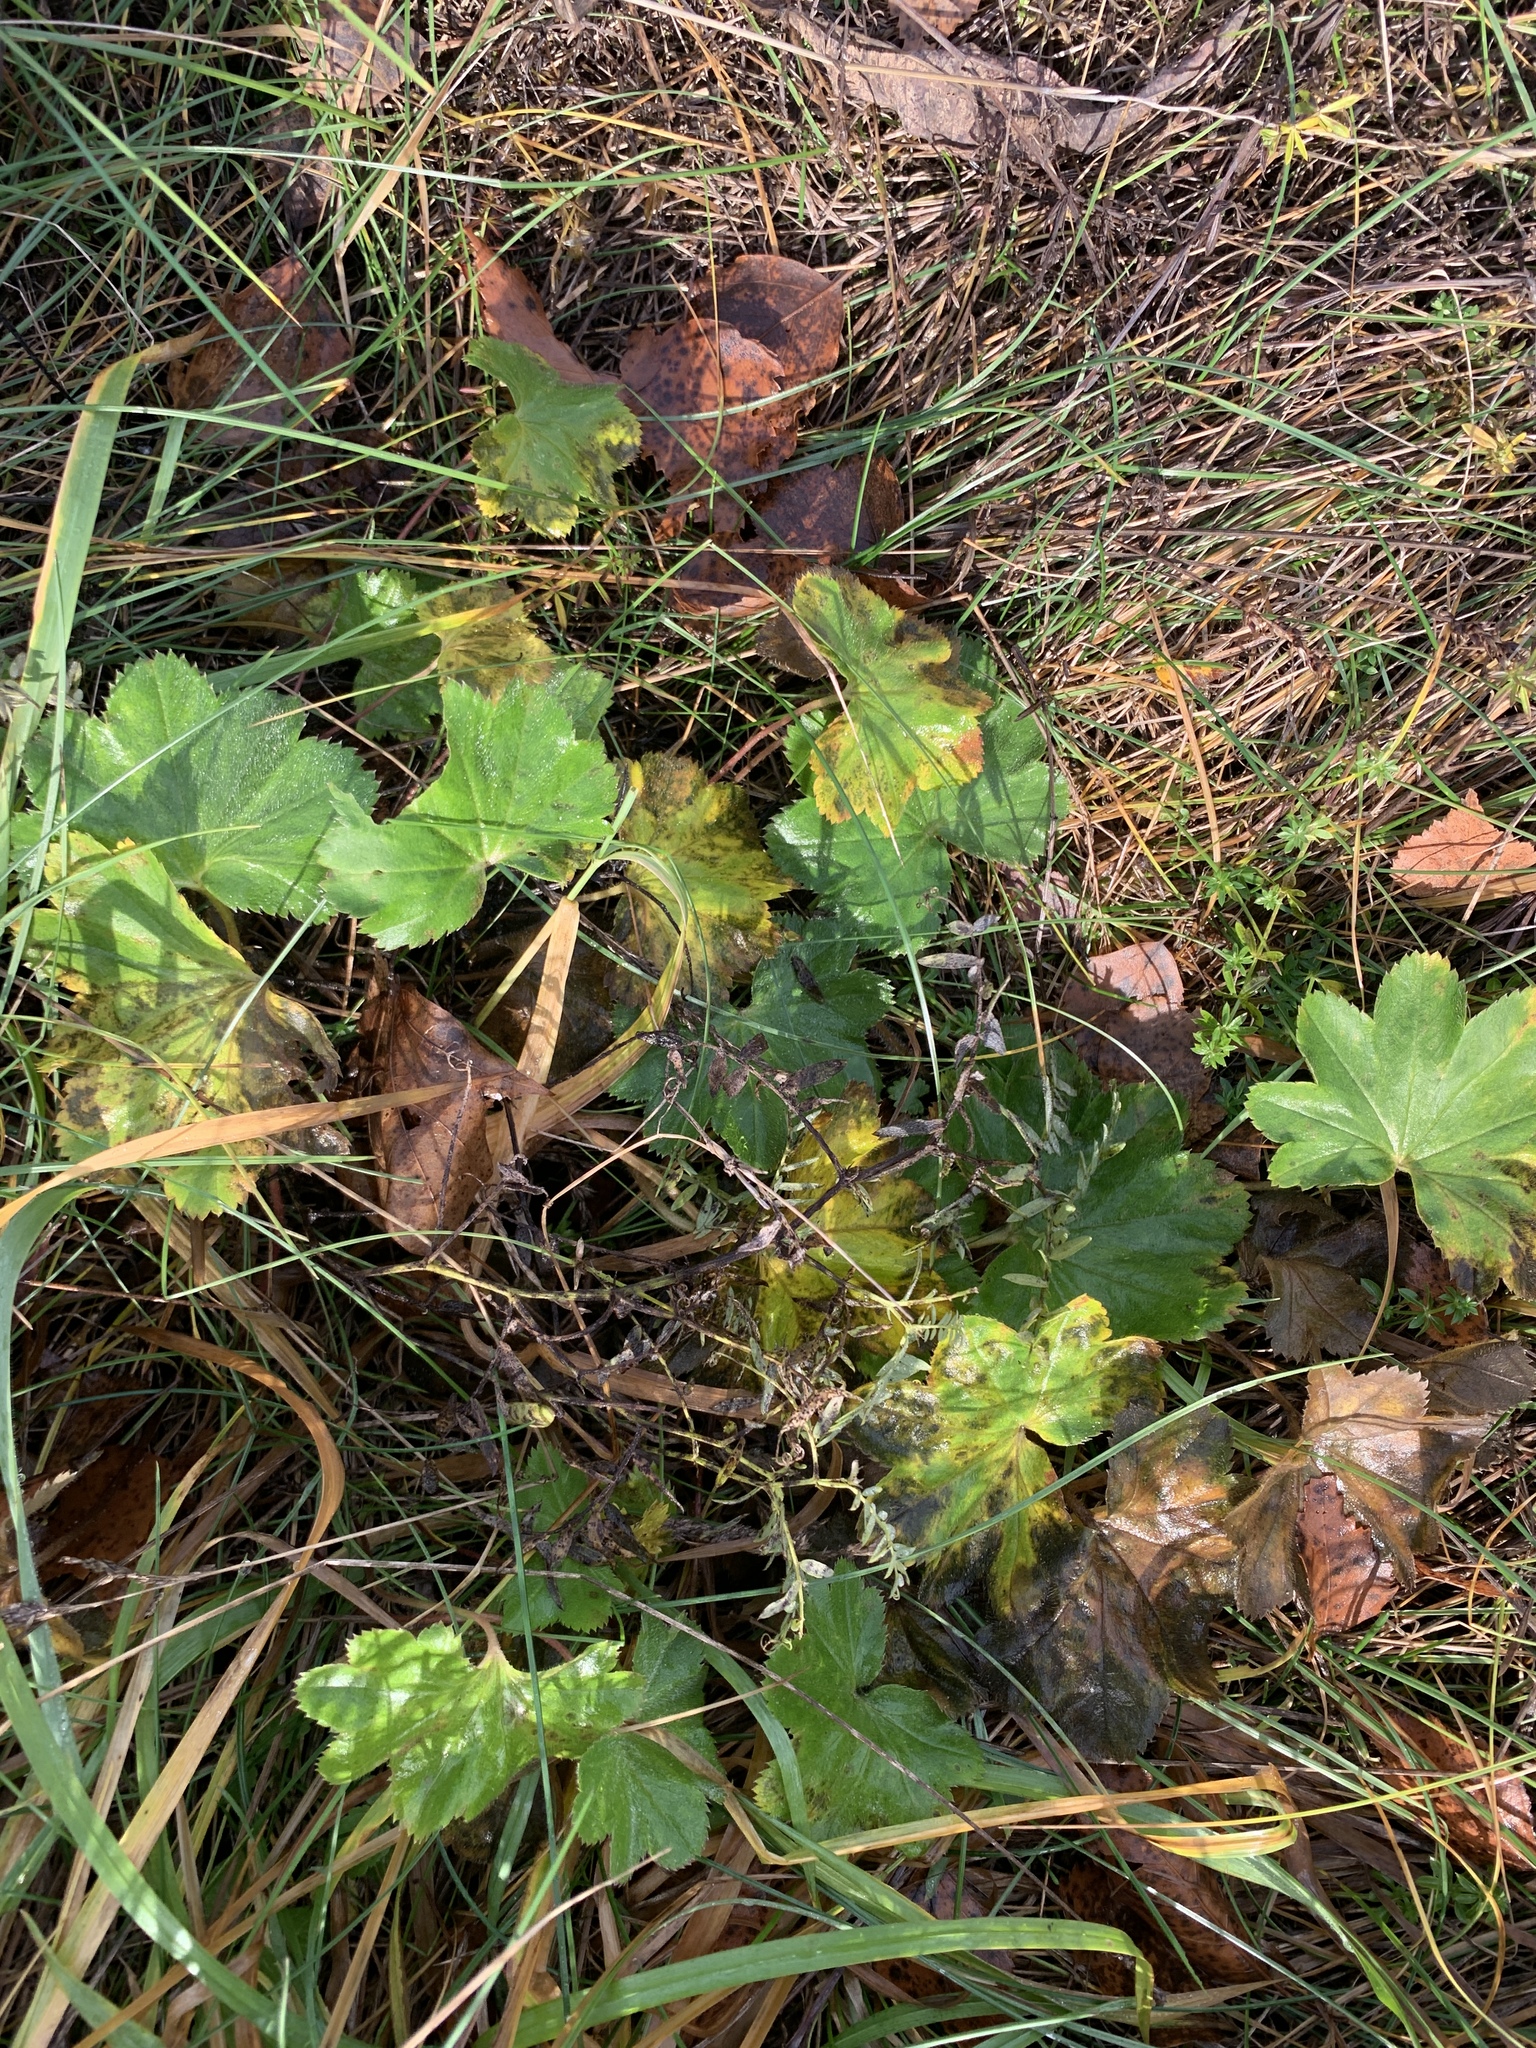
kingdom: Plantae
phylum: Tracheophyta
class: Magnoliopsida
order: Rosales
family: Rosaceae
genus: Alchemilla
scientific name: Alchemilla
